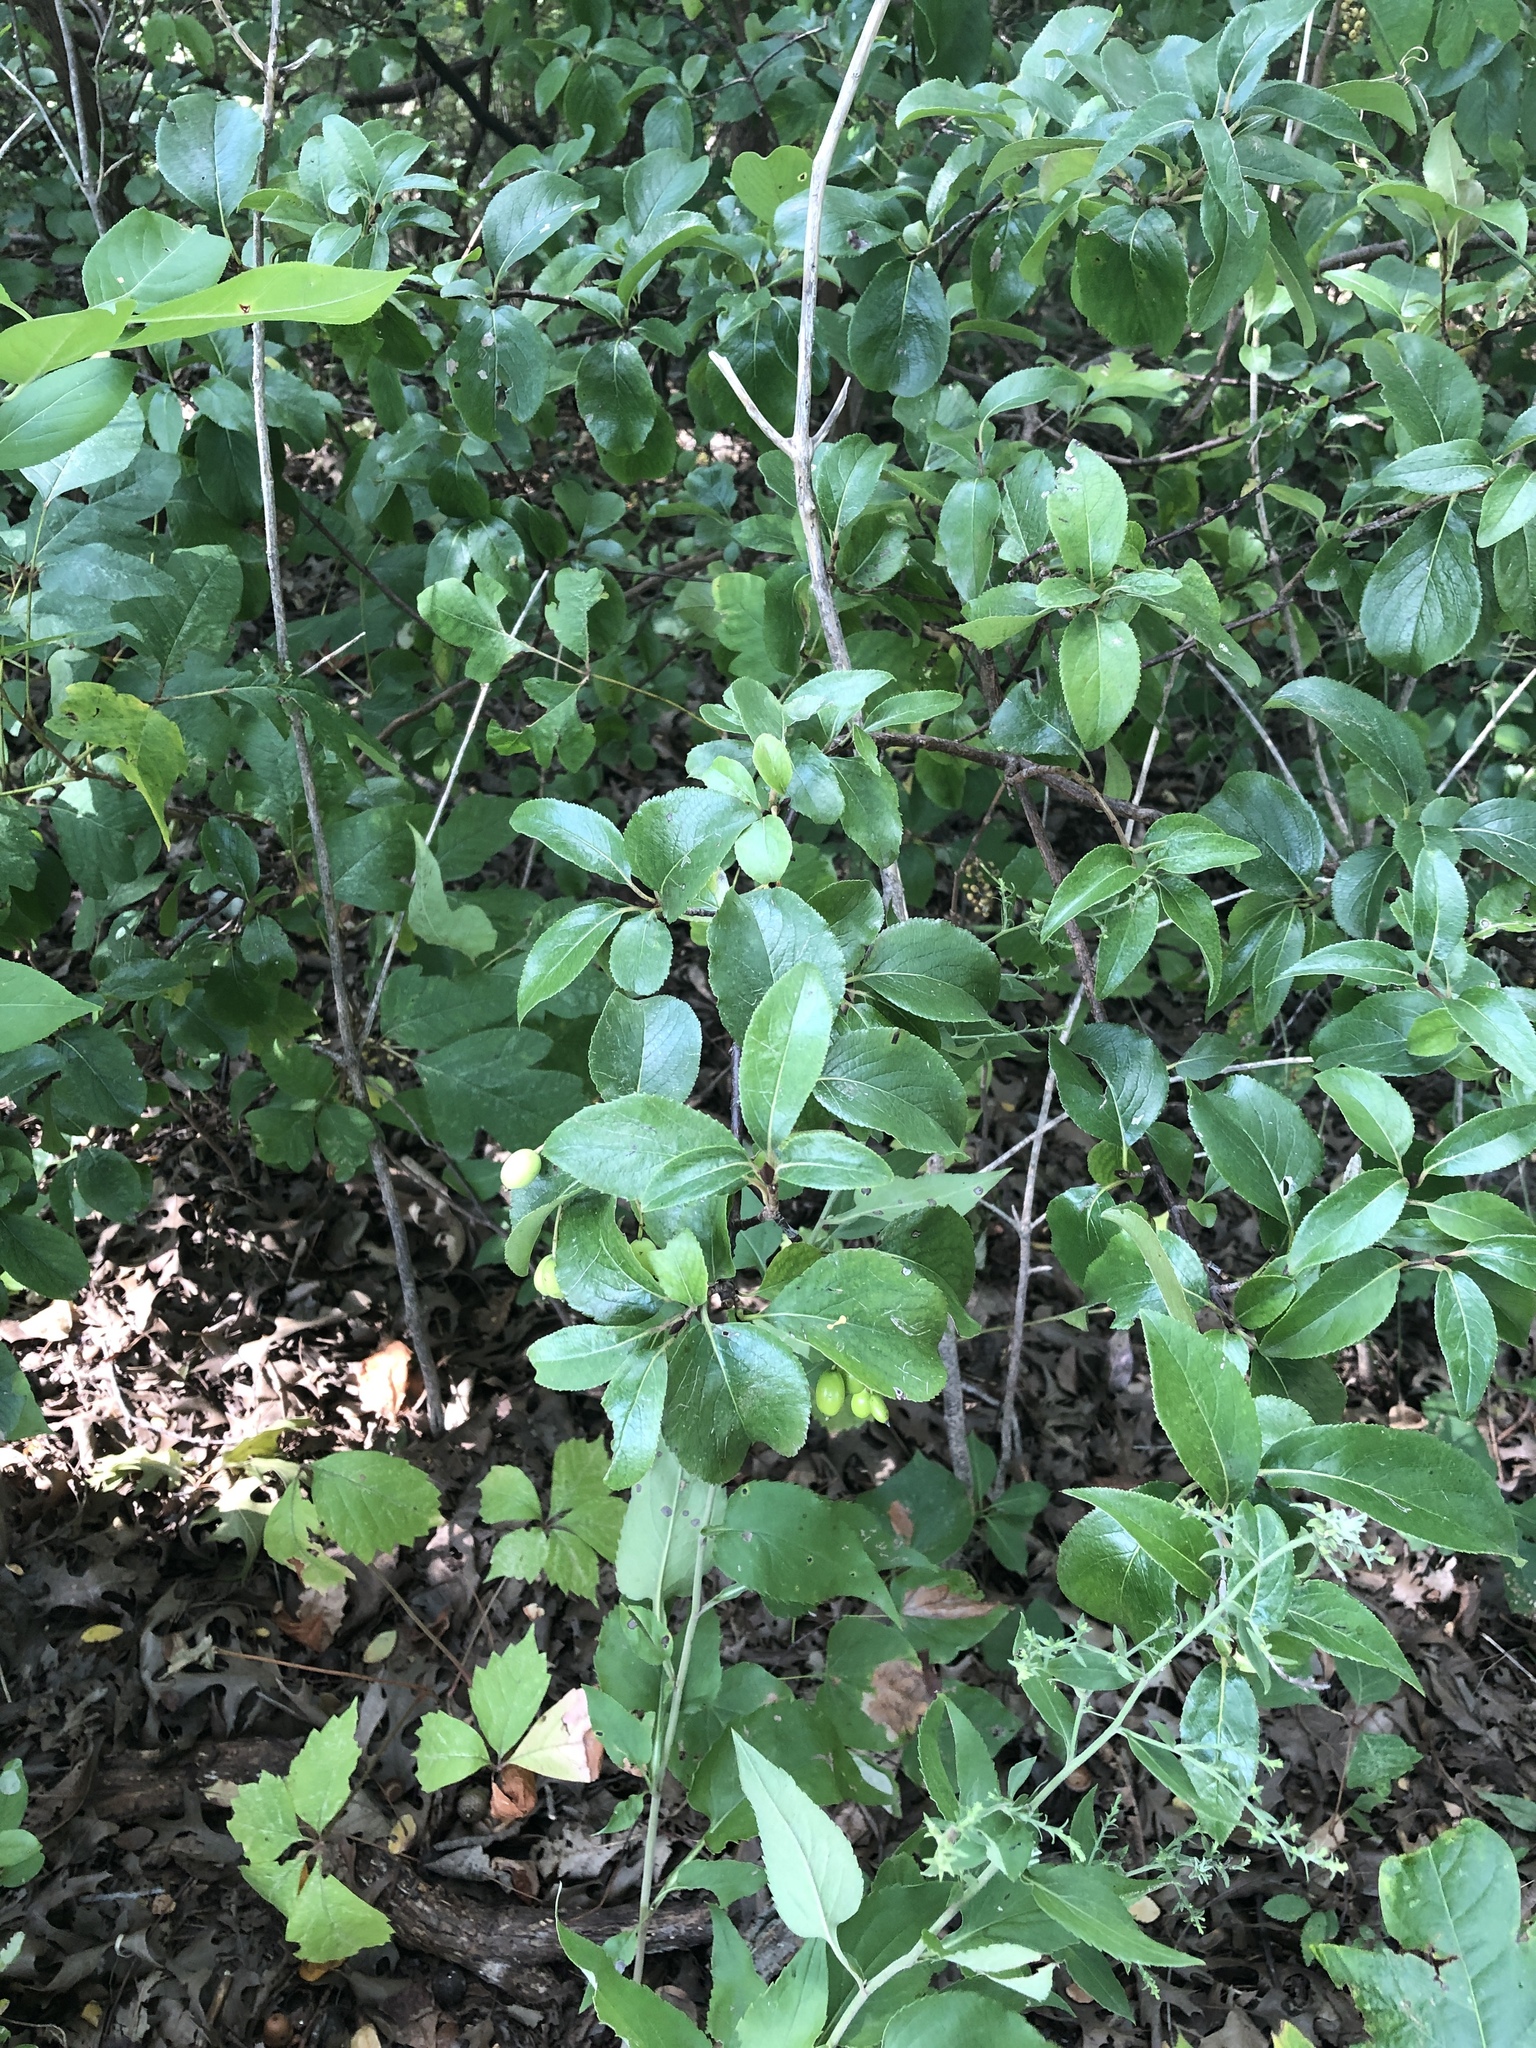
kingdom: Plantae
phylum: Tracheophyta
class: Magnoliopsida
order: Dipsacales
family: Viburnaceae
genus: Viburnum
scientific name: Viburnum rufidulum
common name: Blue haw
